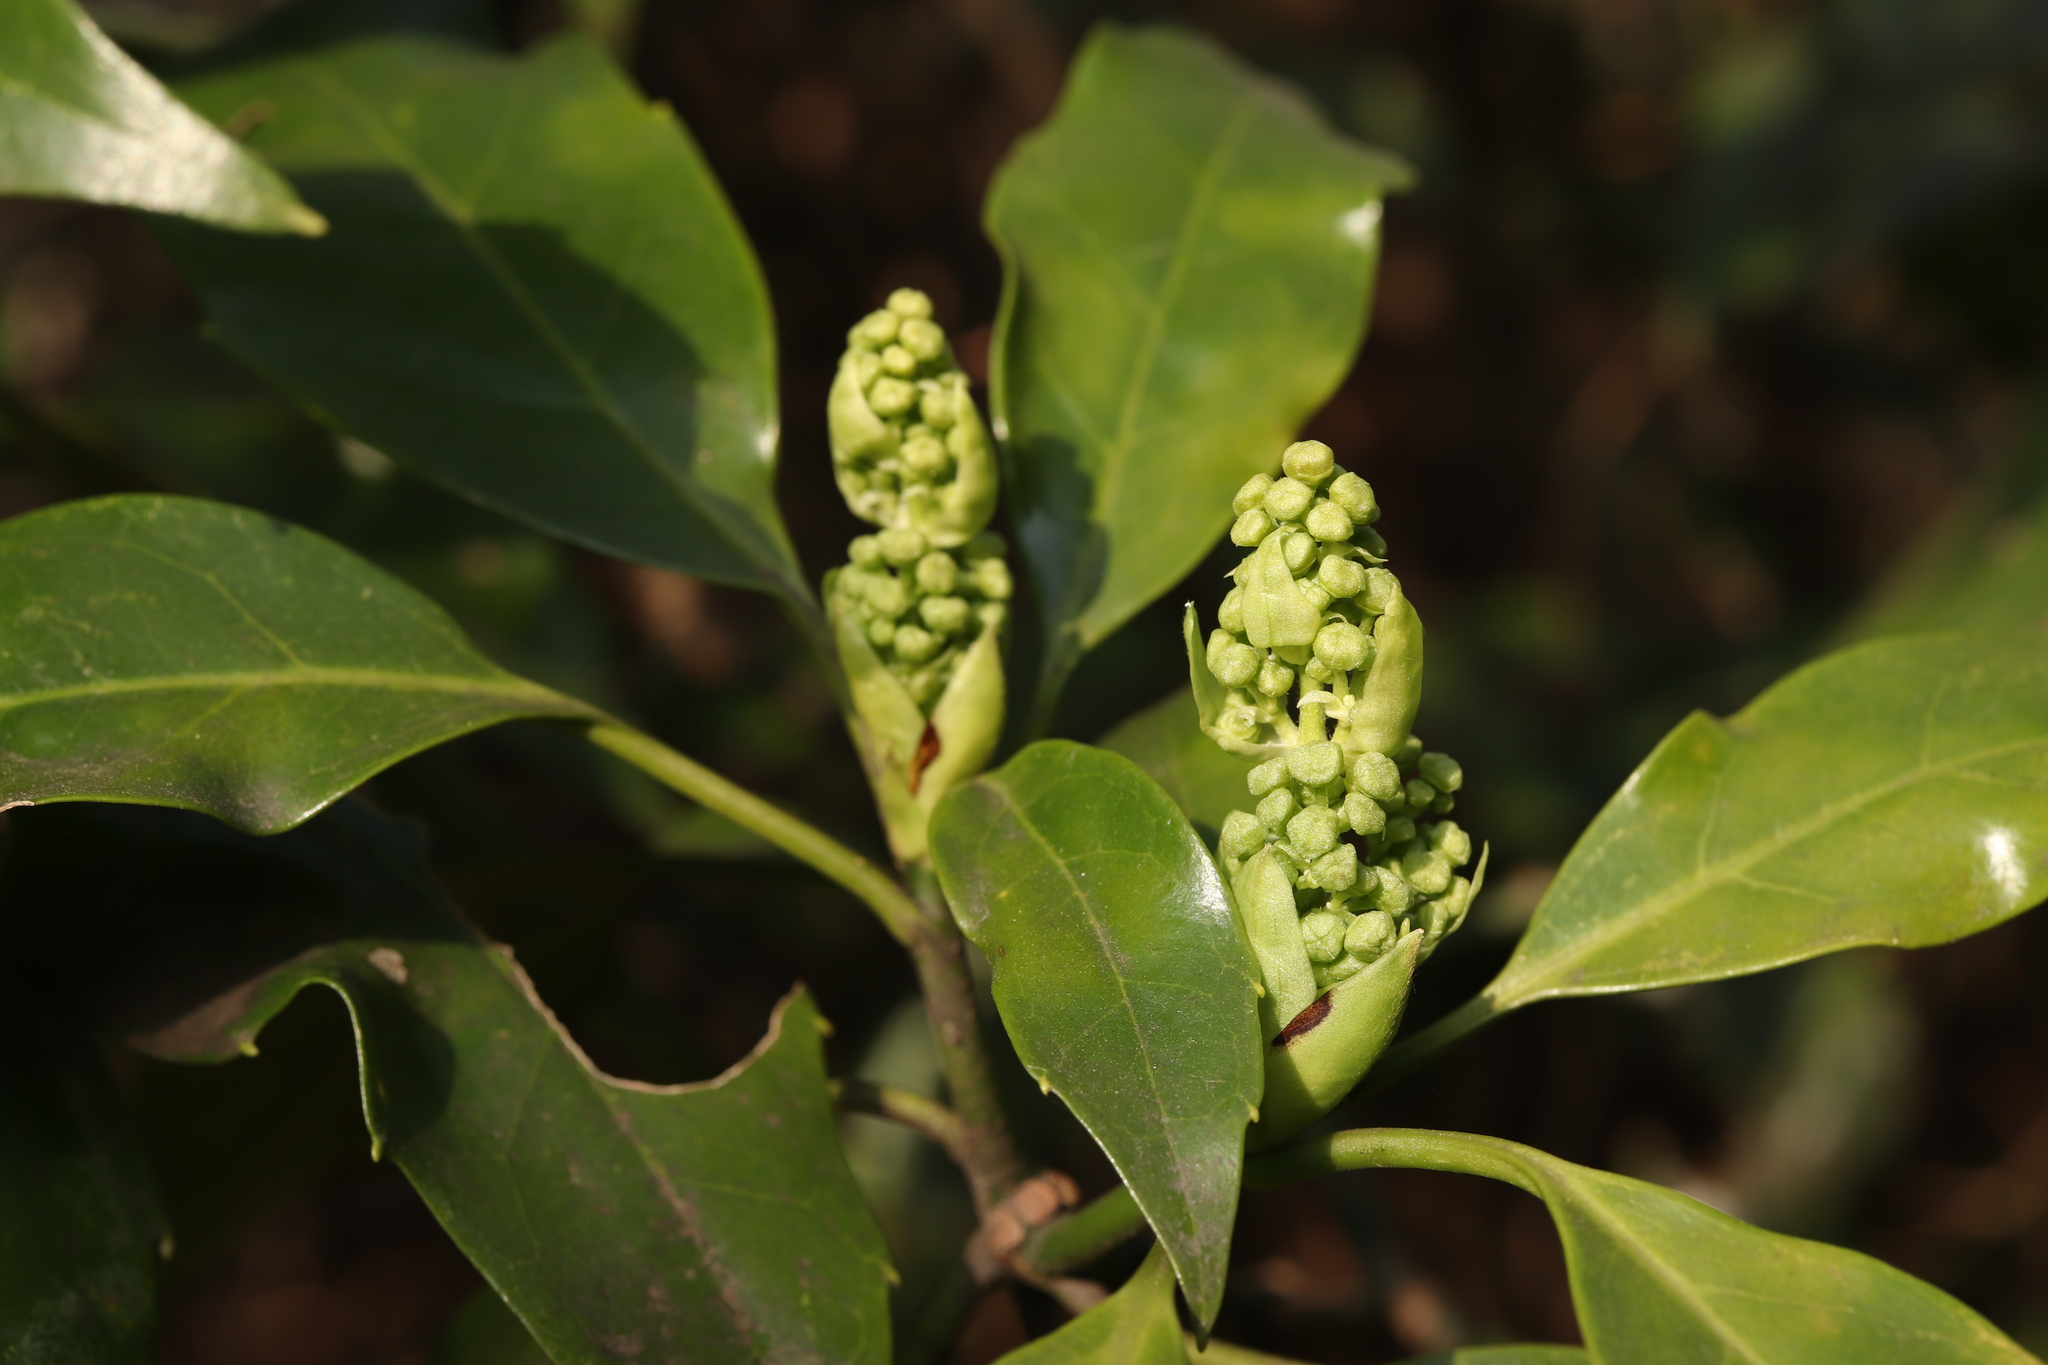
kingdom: Plantae
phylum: Tracheophyta
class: Magnoliopsida
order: Garryales
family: Garryaceae
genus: Aucuba
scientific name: Aucuba japonica
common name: Spotted-laurel
